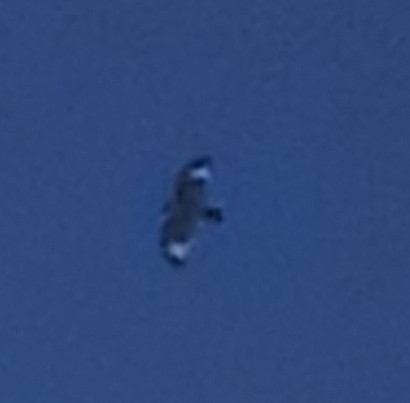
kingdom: Animalia
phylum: Chordata
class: Aves
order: Accipitriformes
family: Accipitridae
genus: Buteo
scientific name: Buteo lineatus
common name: Red-shouldered hawk
